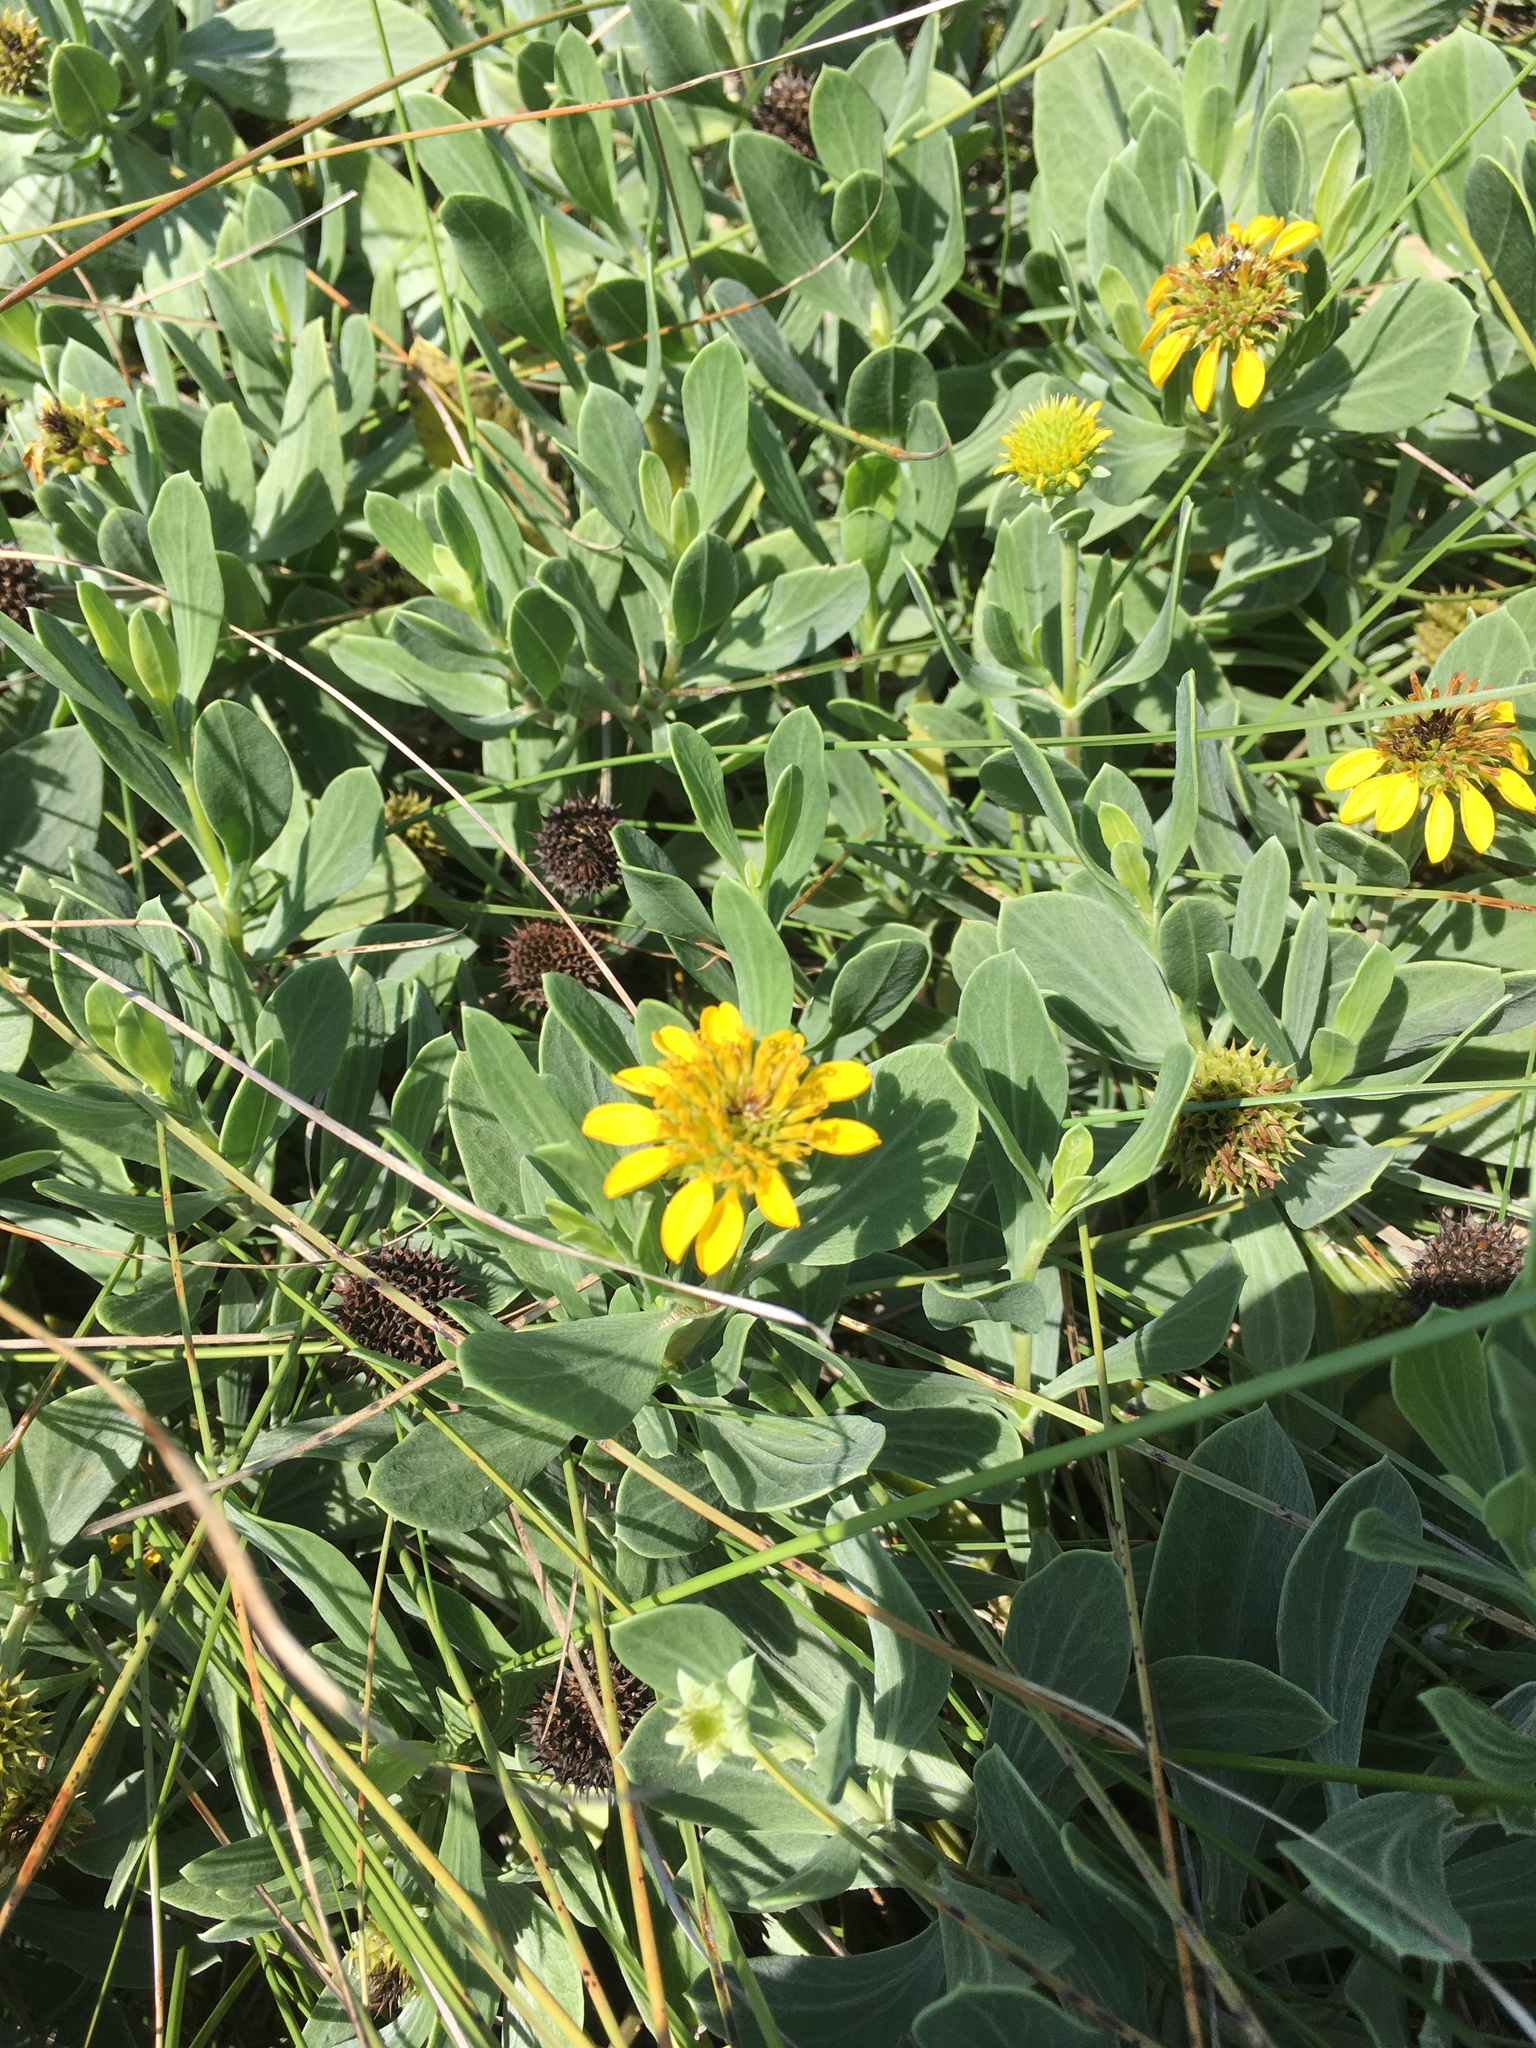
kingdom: Plantae
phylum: Tracheophyta
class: Magnoliopsida
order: Asterales
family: Asteraceae
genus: Borrichia
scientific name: Borrichia frutescens
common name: Sea oxeye
